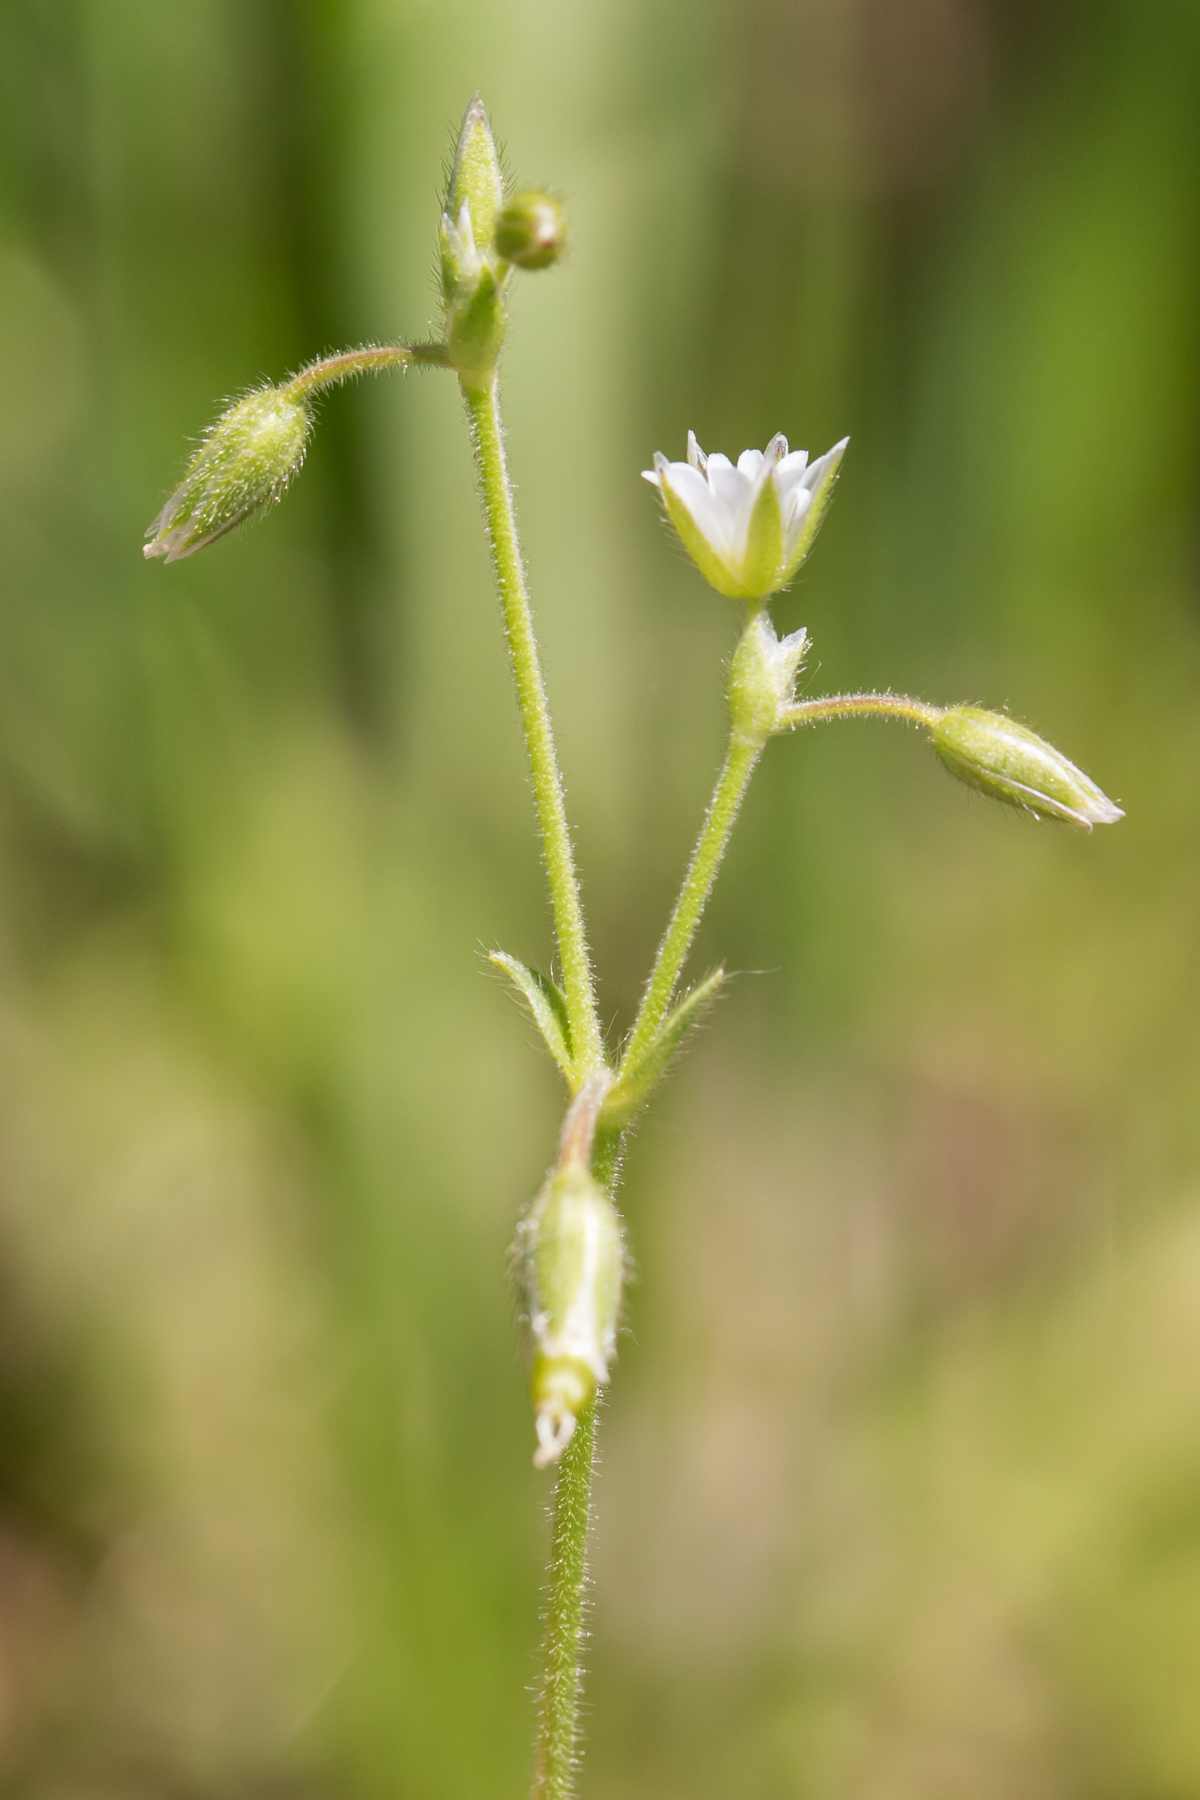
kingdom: Plantae
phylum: Tracheophyta
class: Magnoliopsida
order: Caryophyllales
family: Caryophyllaceae
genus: Cerastium
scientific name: Cerastium fontanum
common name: Common mouse-ear
